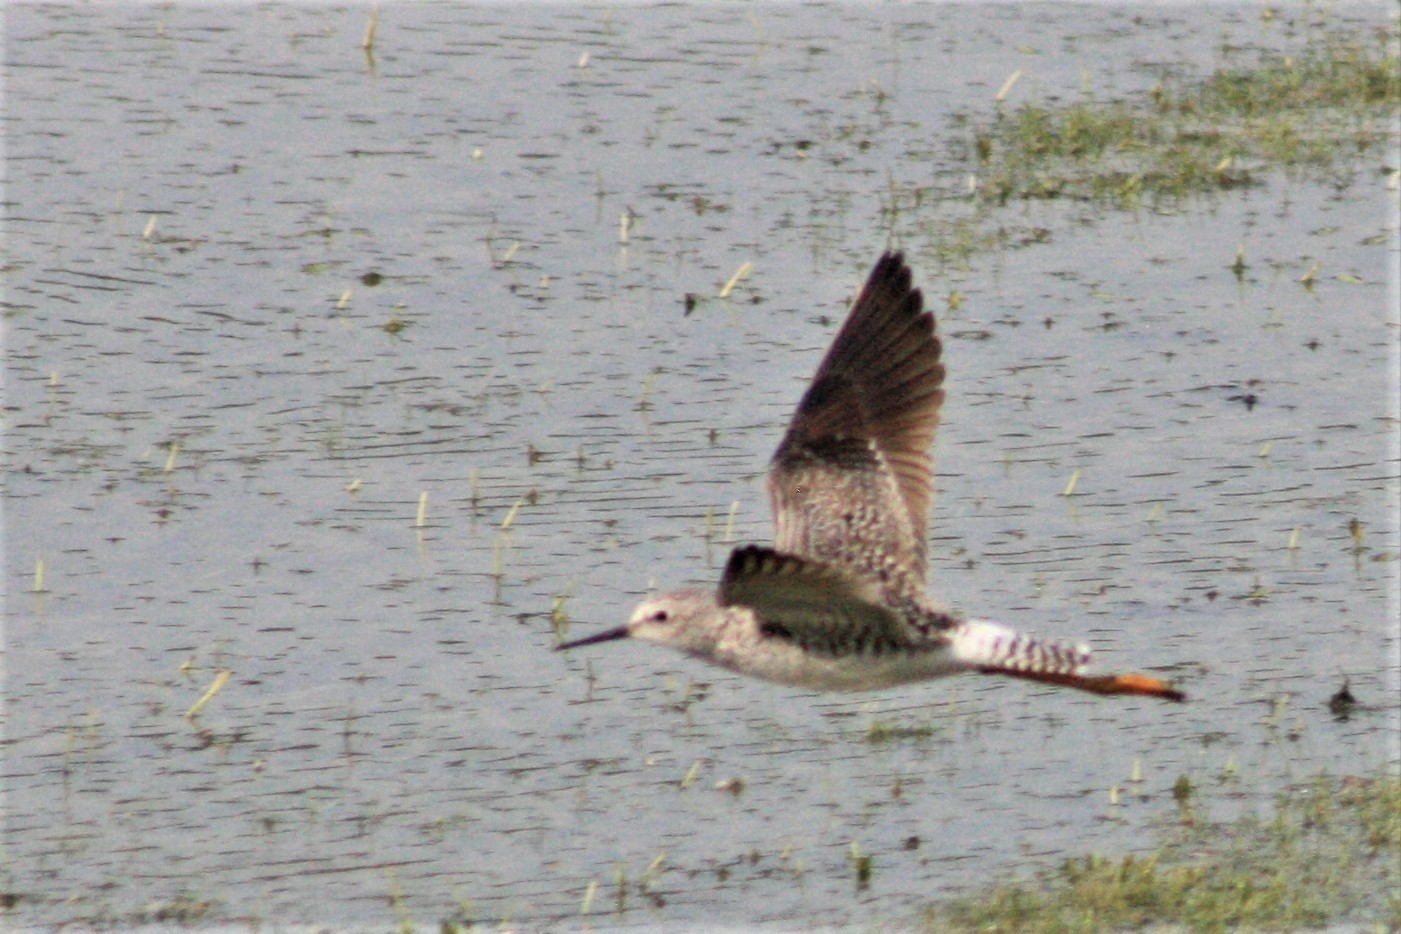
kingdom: Animalia
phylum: Chordata
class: Aves
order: Charadriiformes
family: Scolopacidae
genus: Tringa
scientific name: Tringa flavipes
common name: Lesser yellowlegs
